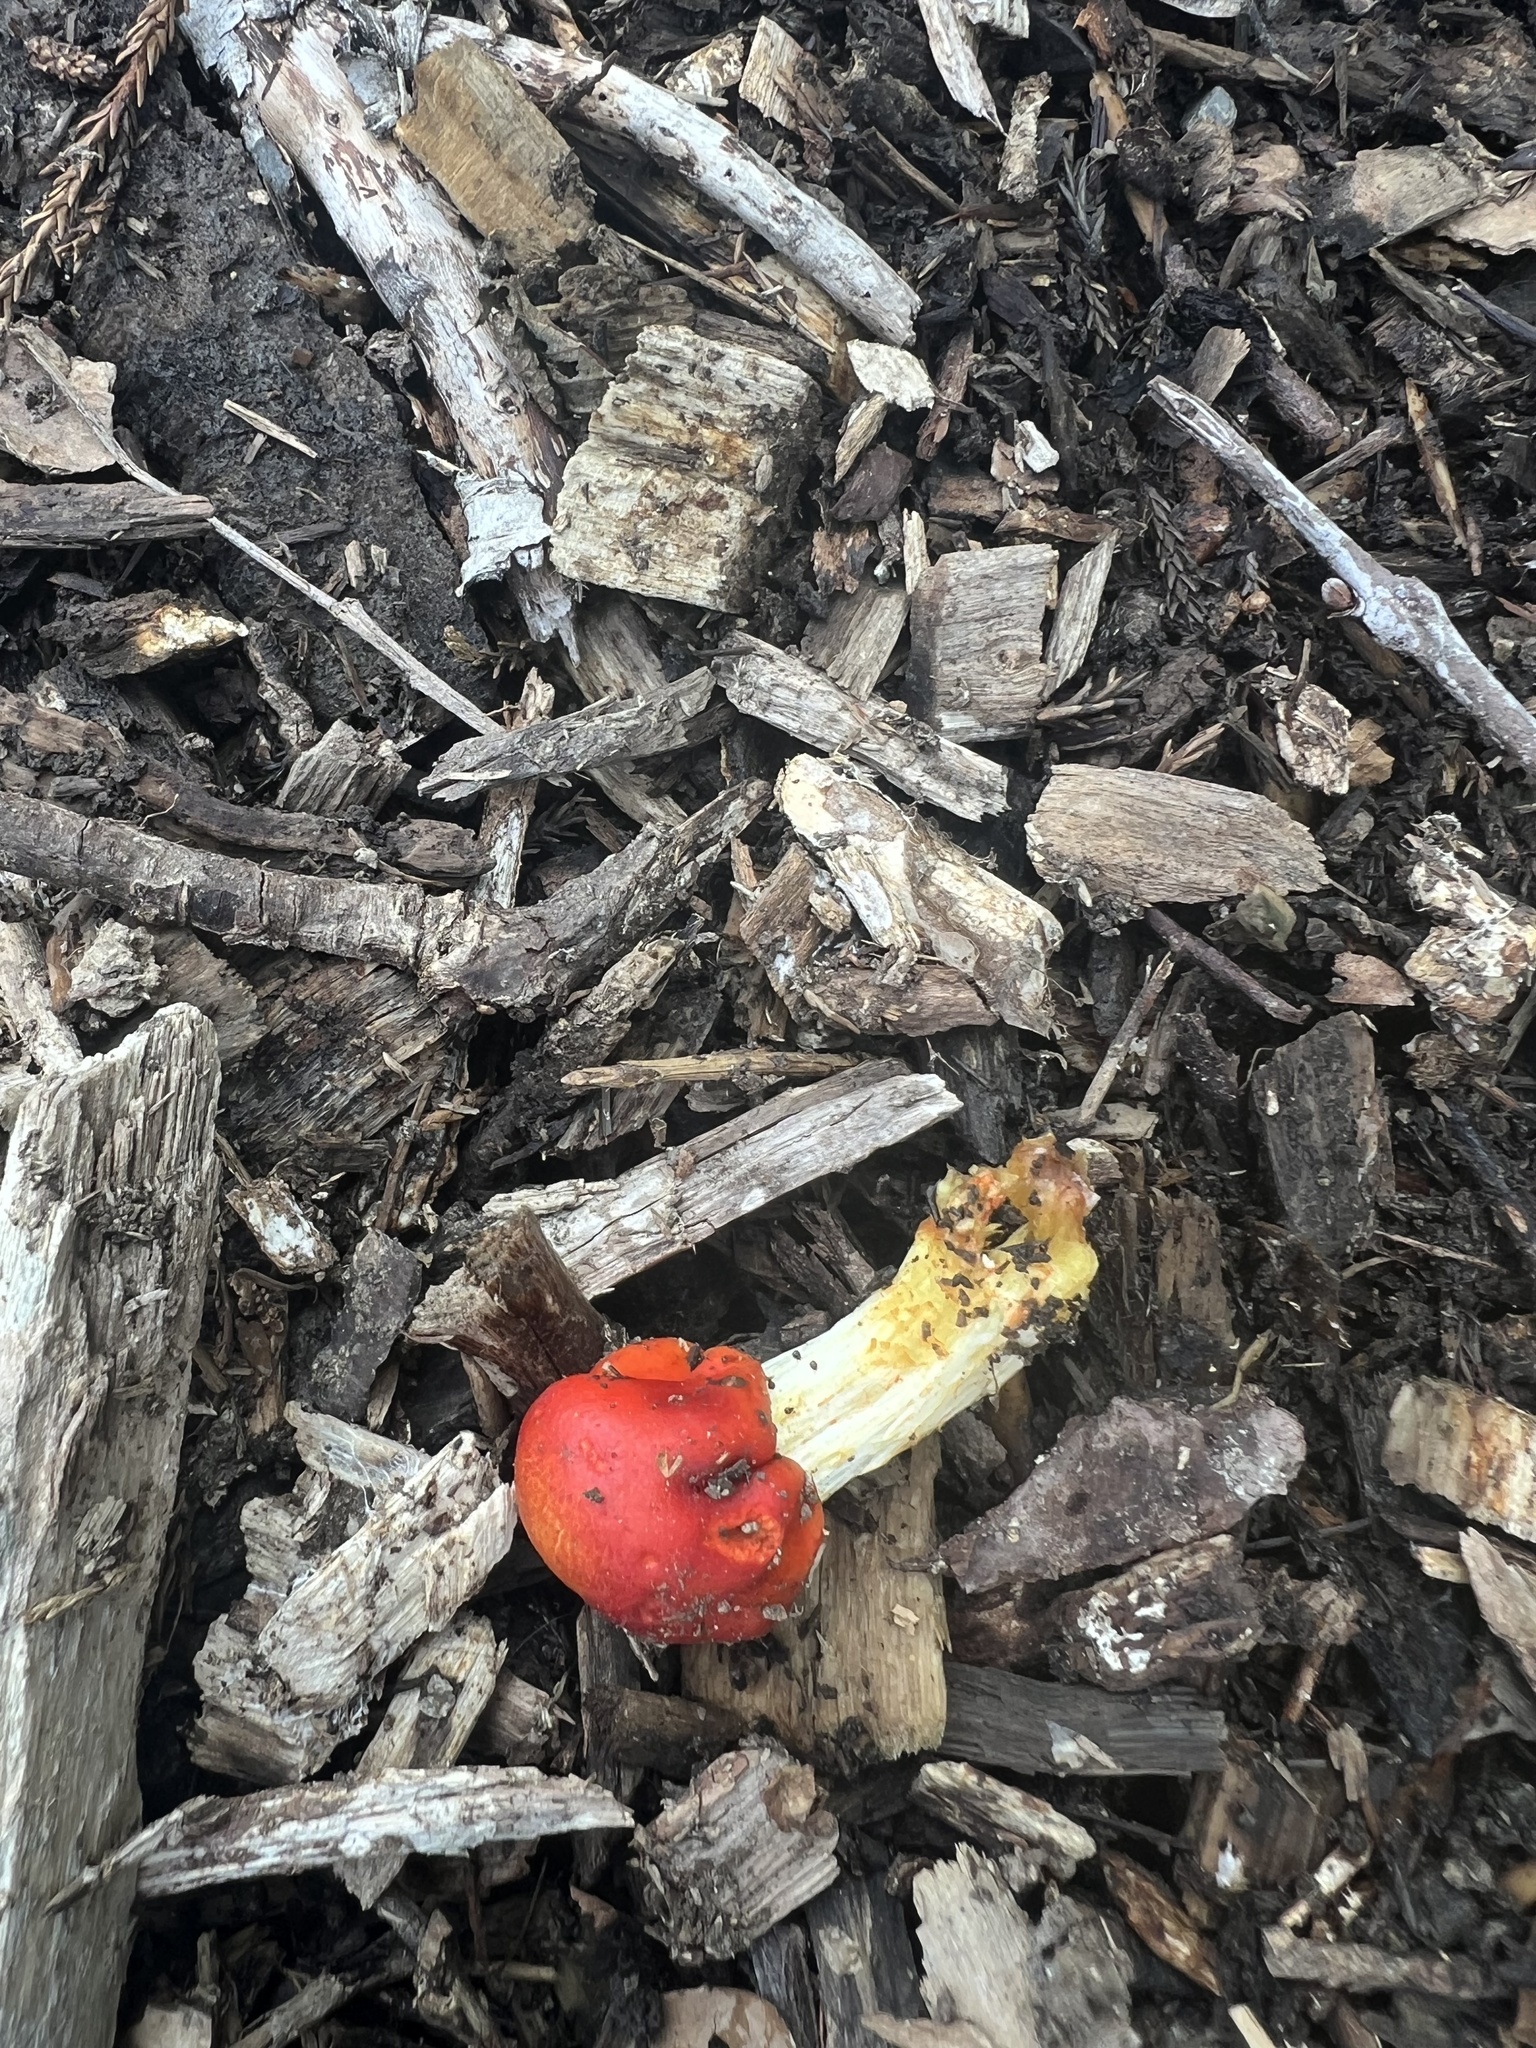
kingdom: Fungi
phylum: Basidiomycota
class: Agaricomycetes
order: Agaricales
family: Strophariaceae
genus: Leratiomyces
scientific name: Leratiomyces erythrocephalus
